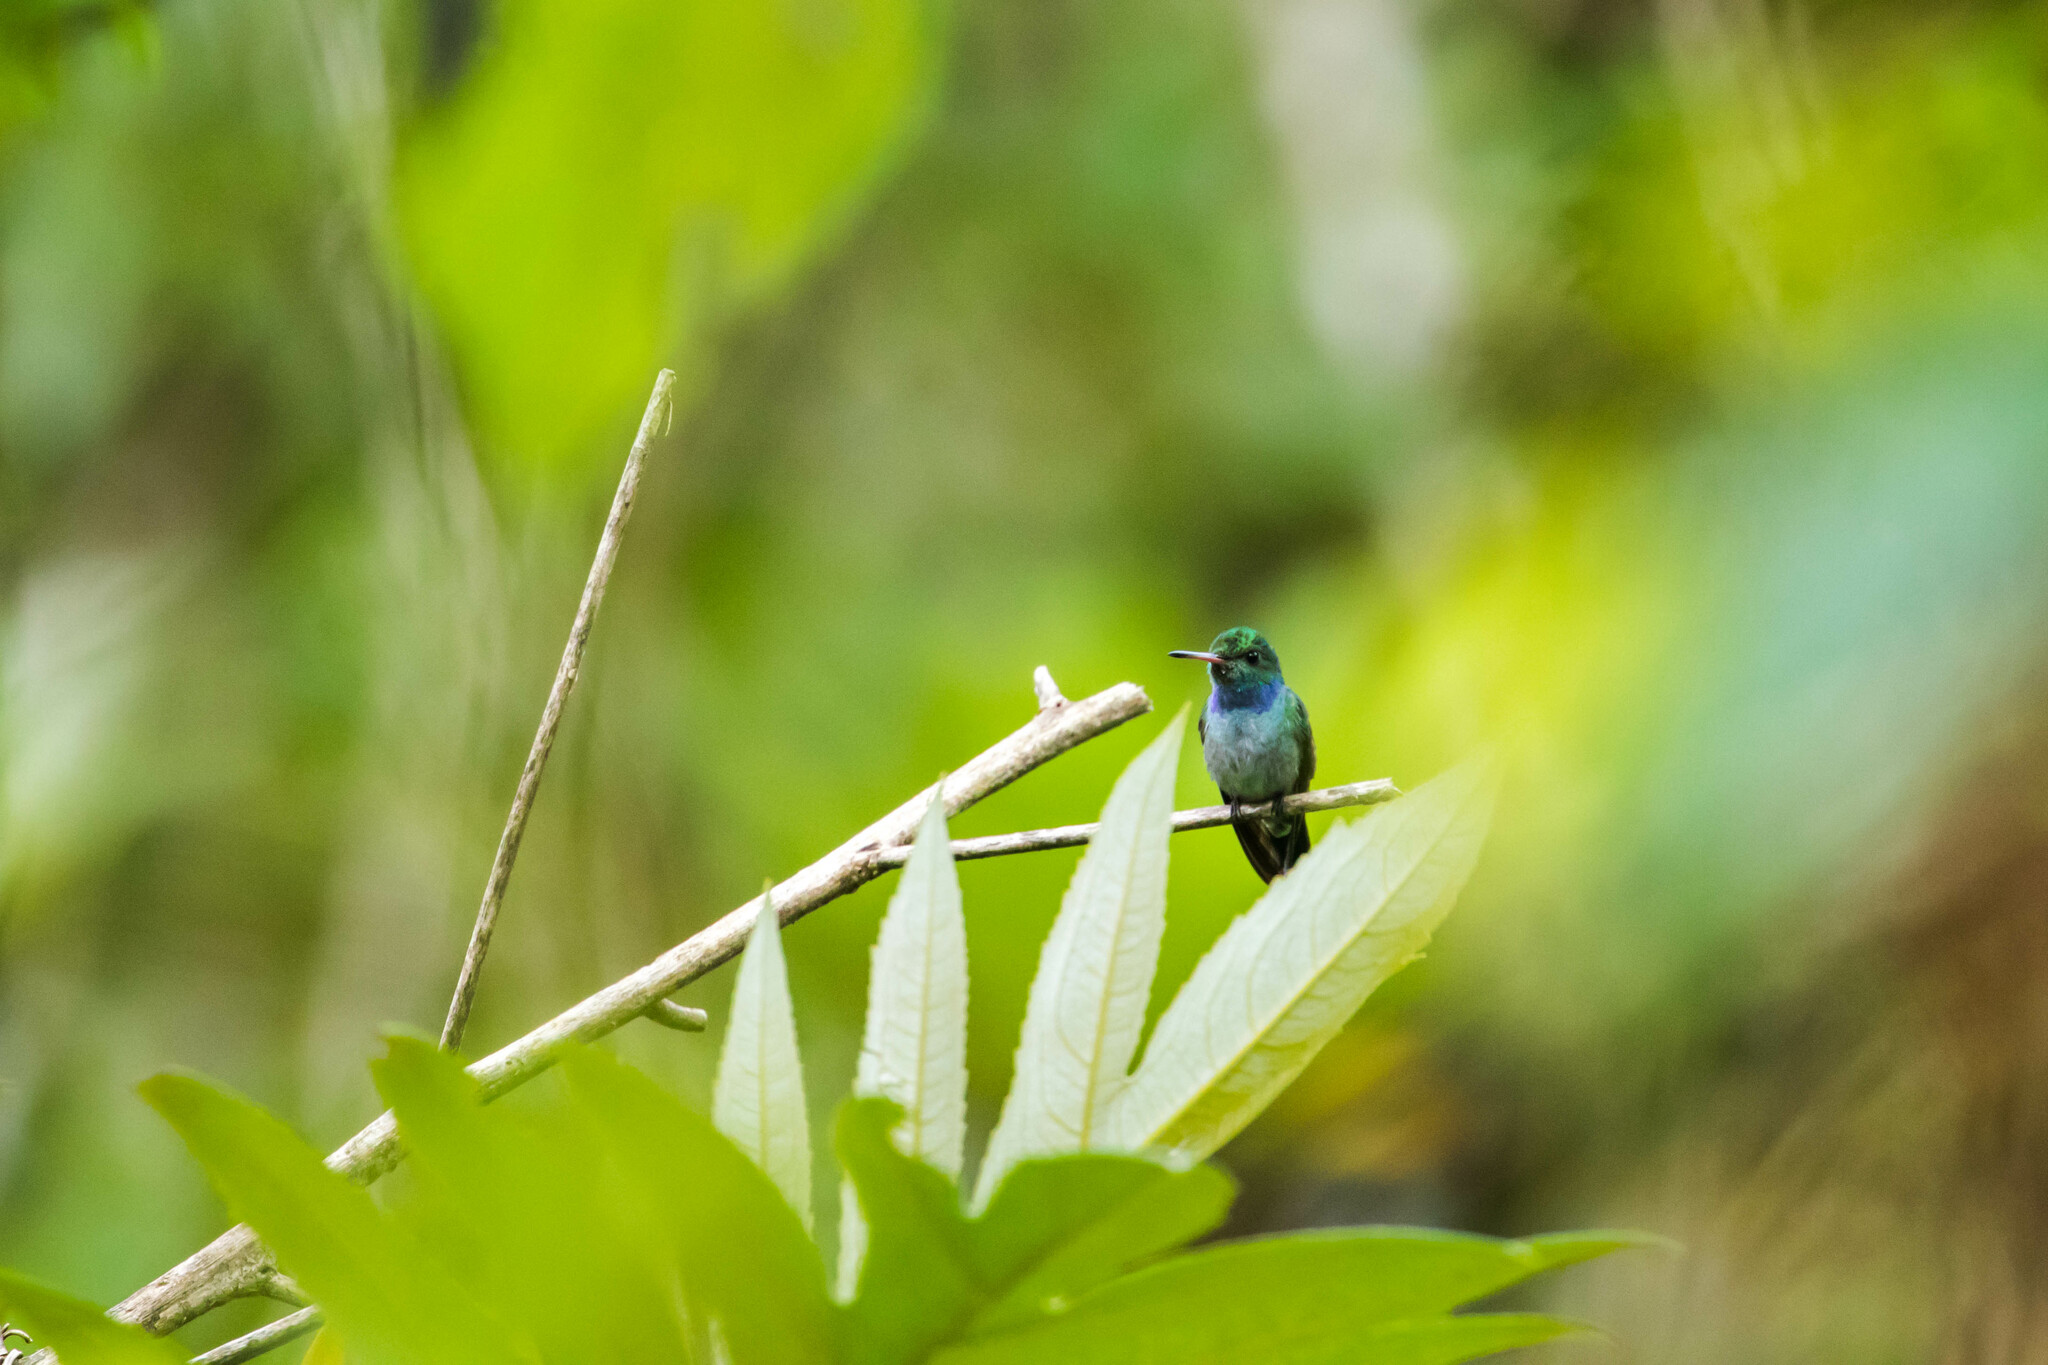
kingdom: Animalia
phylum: Chordata
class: Aves
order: Apodiformes
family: Trochilidae
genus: Polyerata
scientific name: Polyerata amabilis
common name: Blue-chested hummingbird
